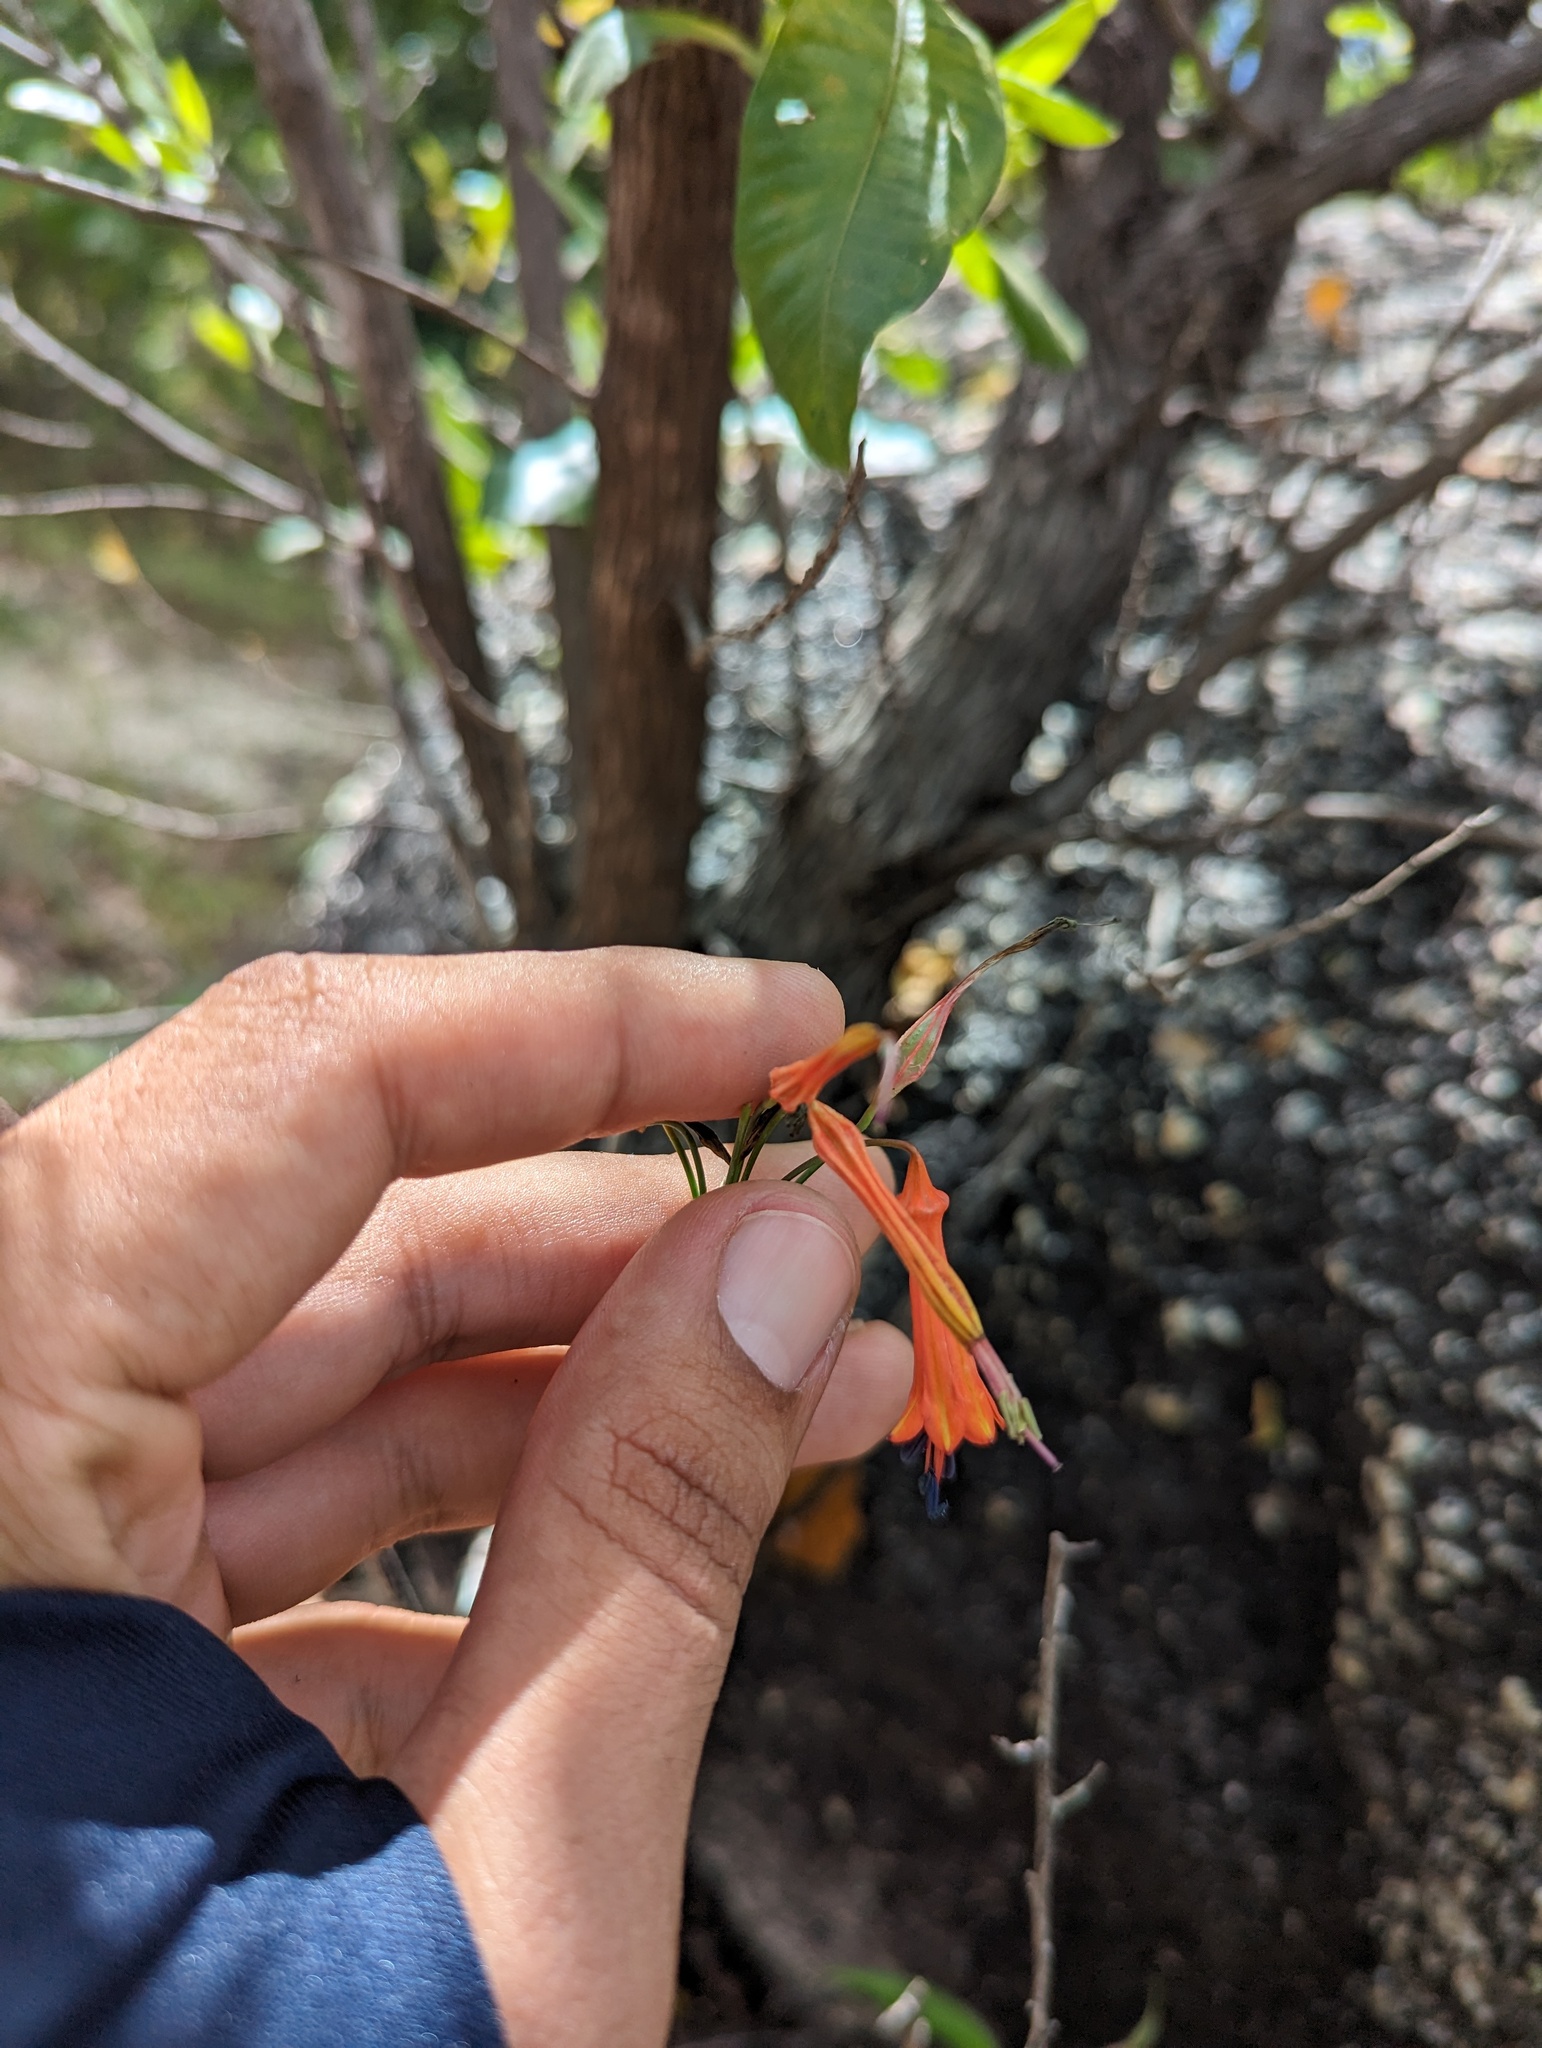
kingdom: Plantae
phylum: Tracheophyta
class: Liliopsida
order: Asparagales
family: Asparagaceae
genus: Bessera
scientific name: Bessera tenuiflora
